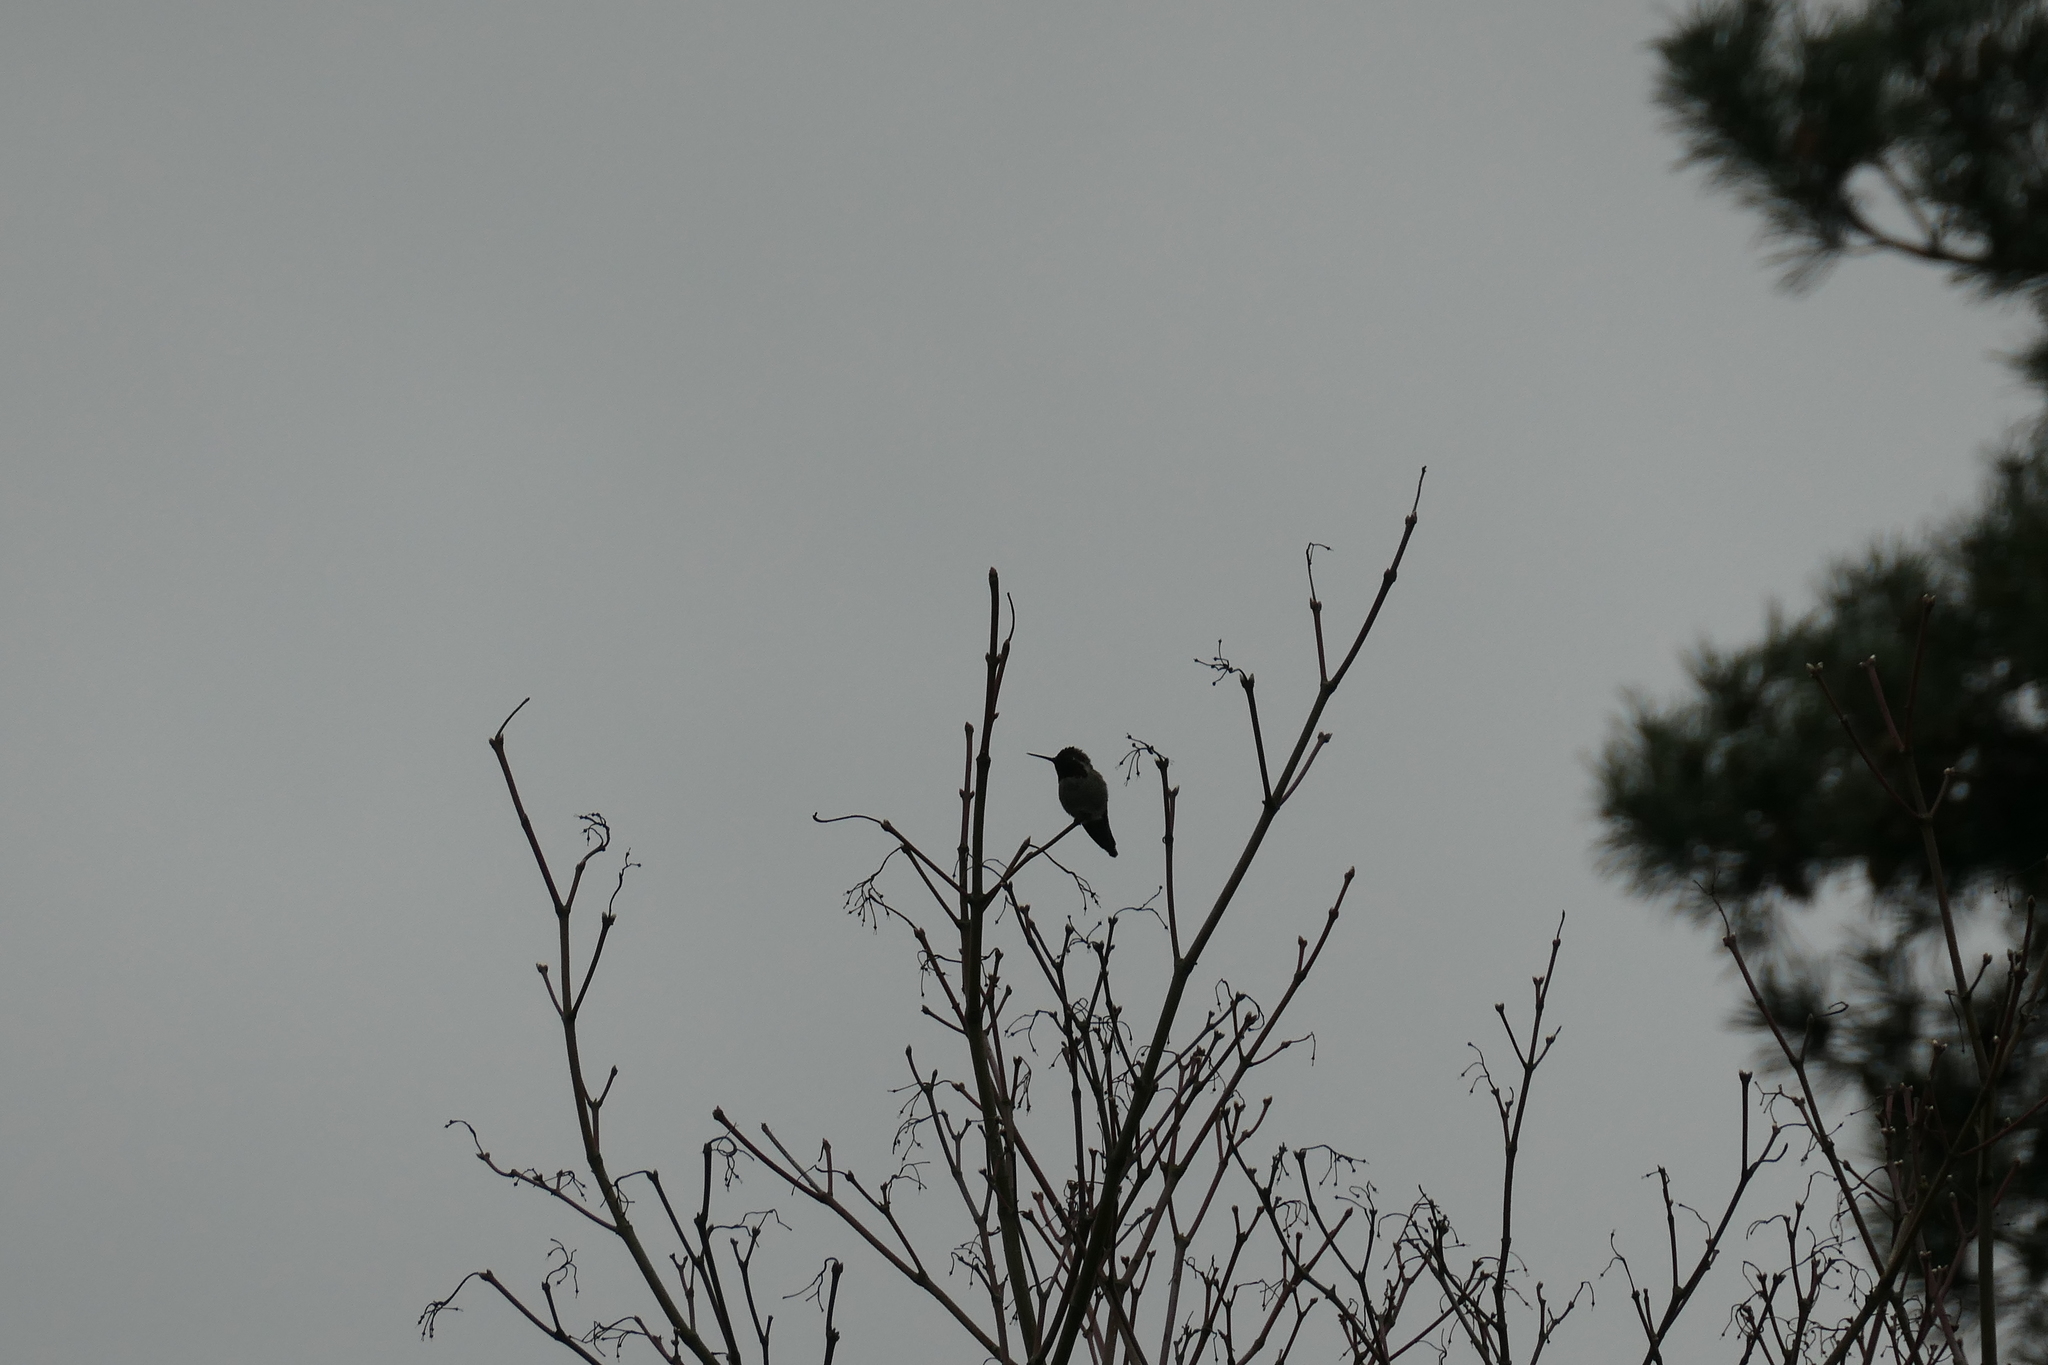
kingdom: Animalia
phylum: Chordata
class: Aves
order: Apodiformes
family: Trochilidae
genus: Calypte
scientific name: Calypte anna
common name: Anna's hummingbird
